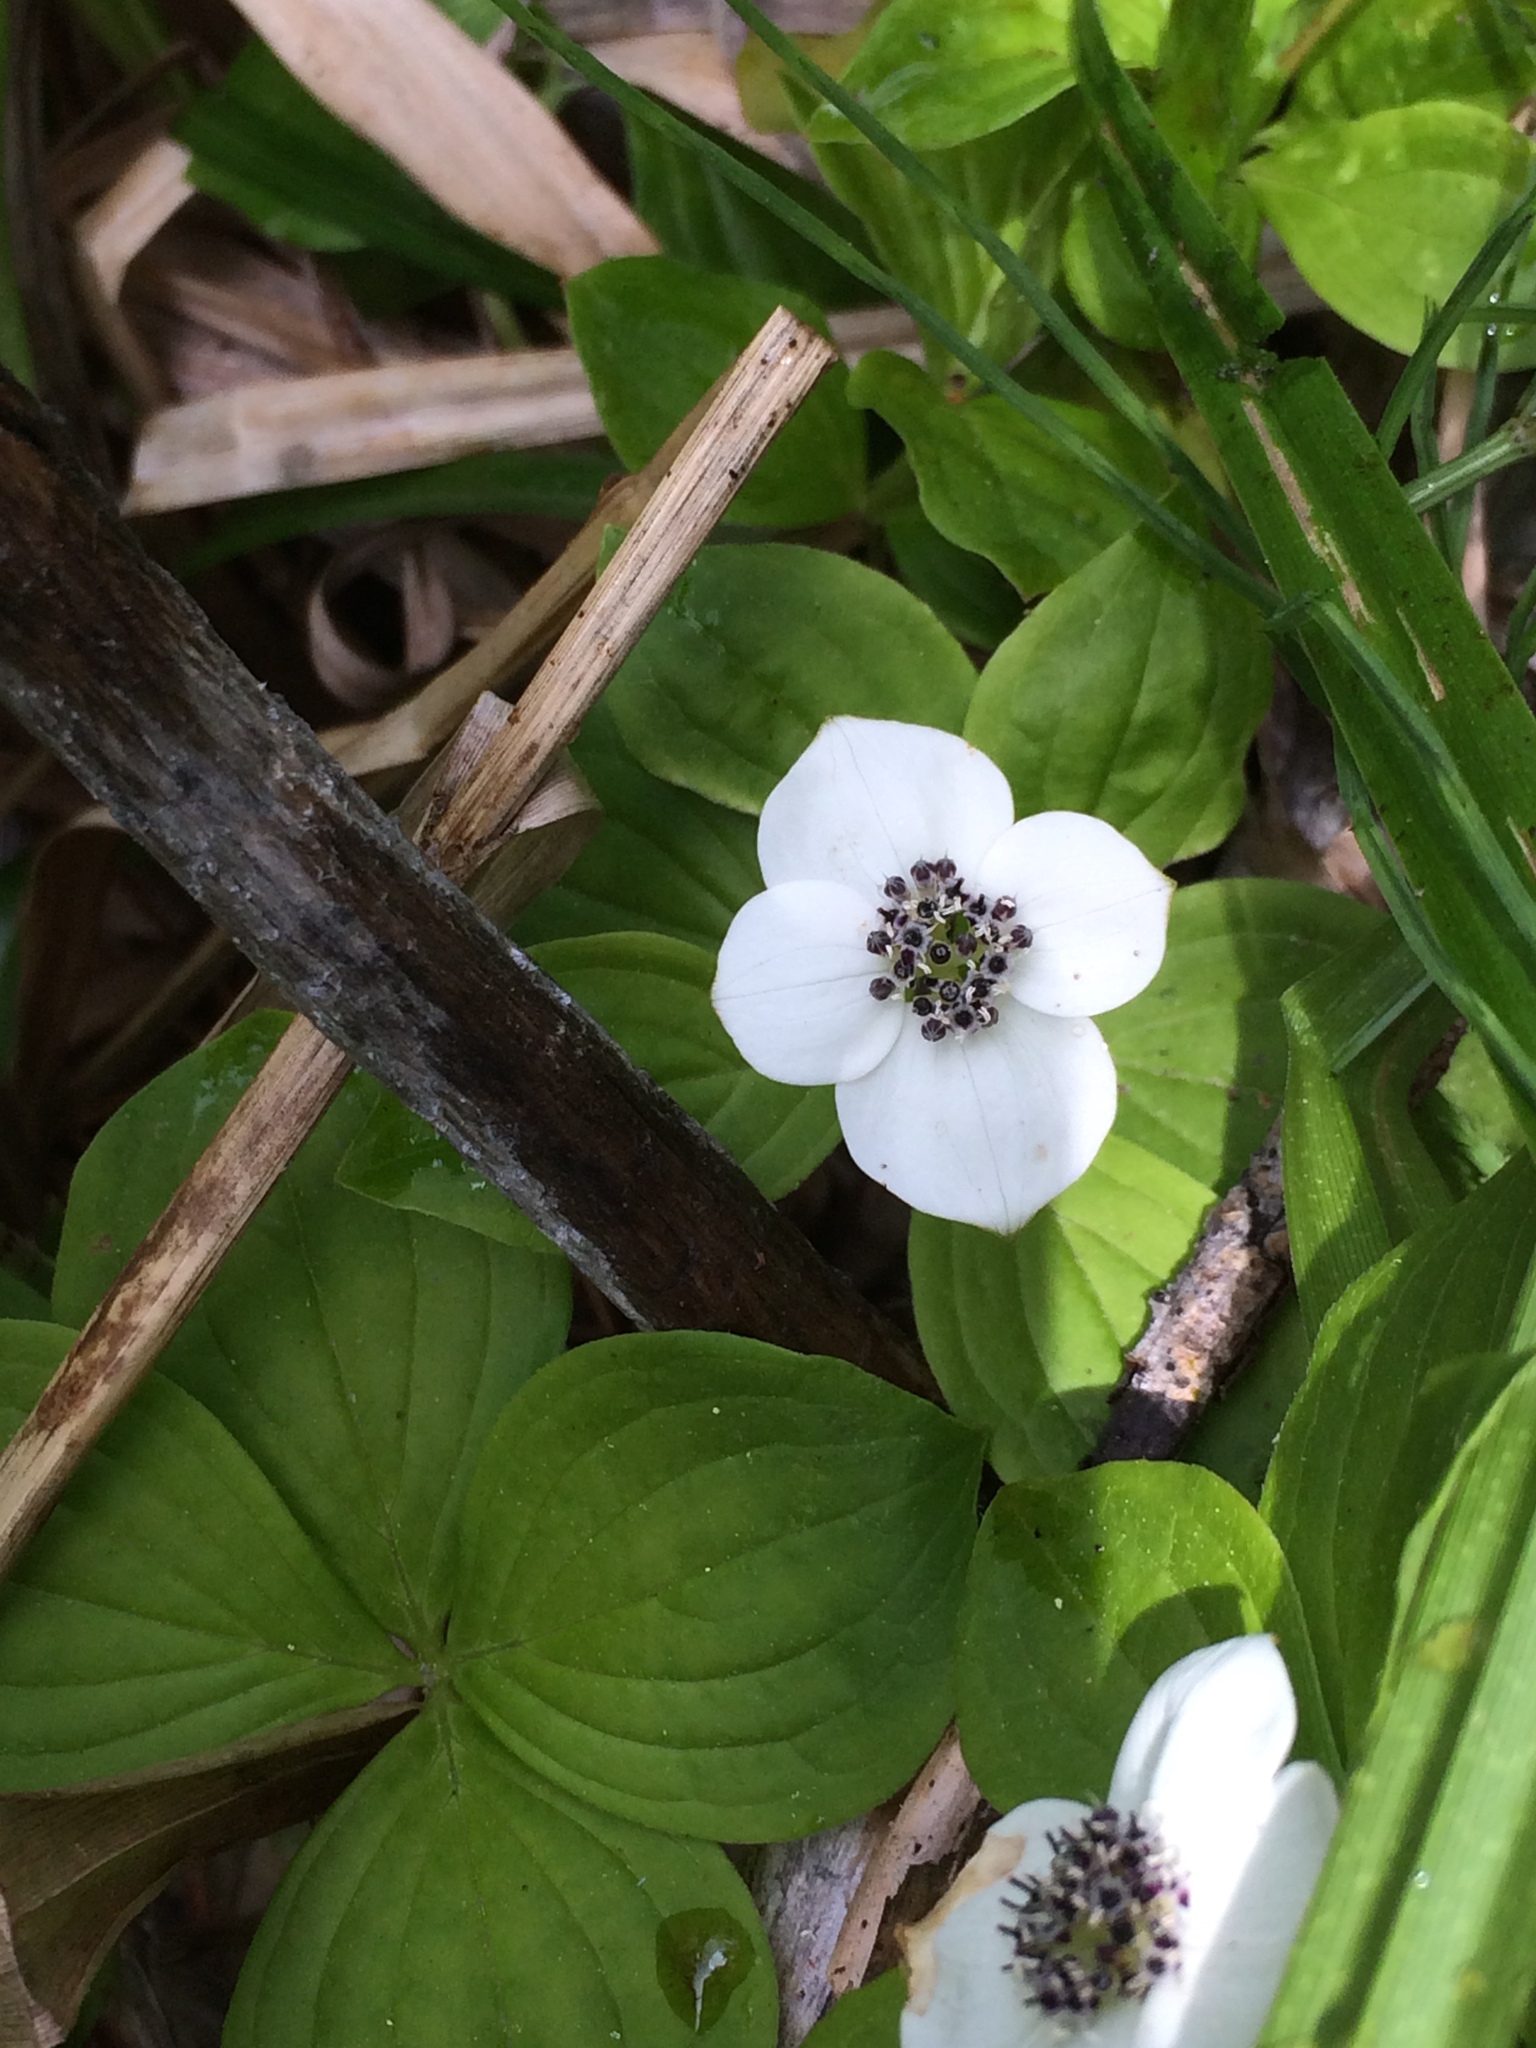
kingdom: Plantae
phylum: Tracheophyta
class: Magnoliopsida
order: Cornales
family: Cornaceae
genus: Cornus
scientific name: Cornus unalaschkensis
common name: Alaska bunchberry
